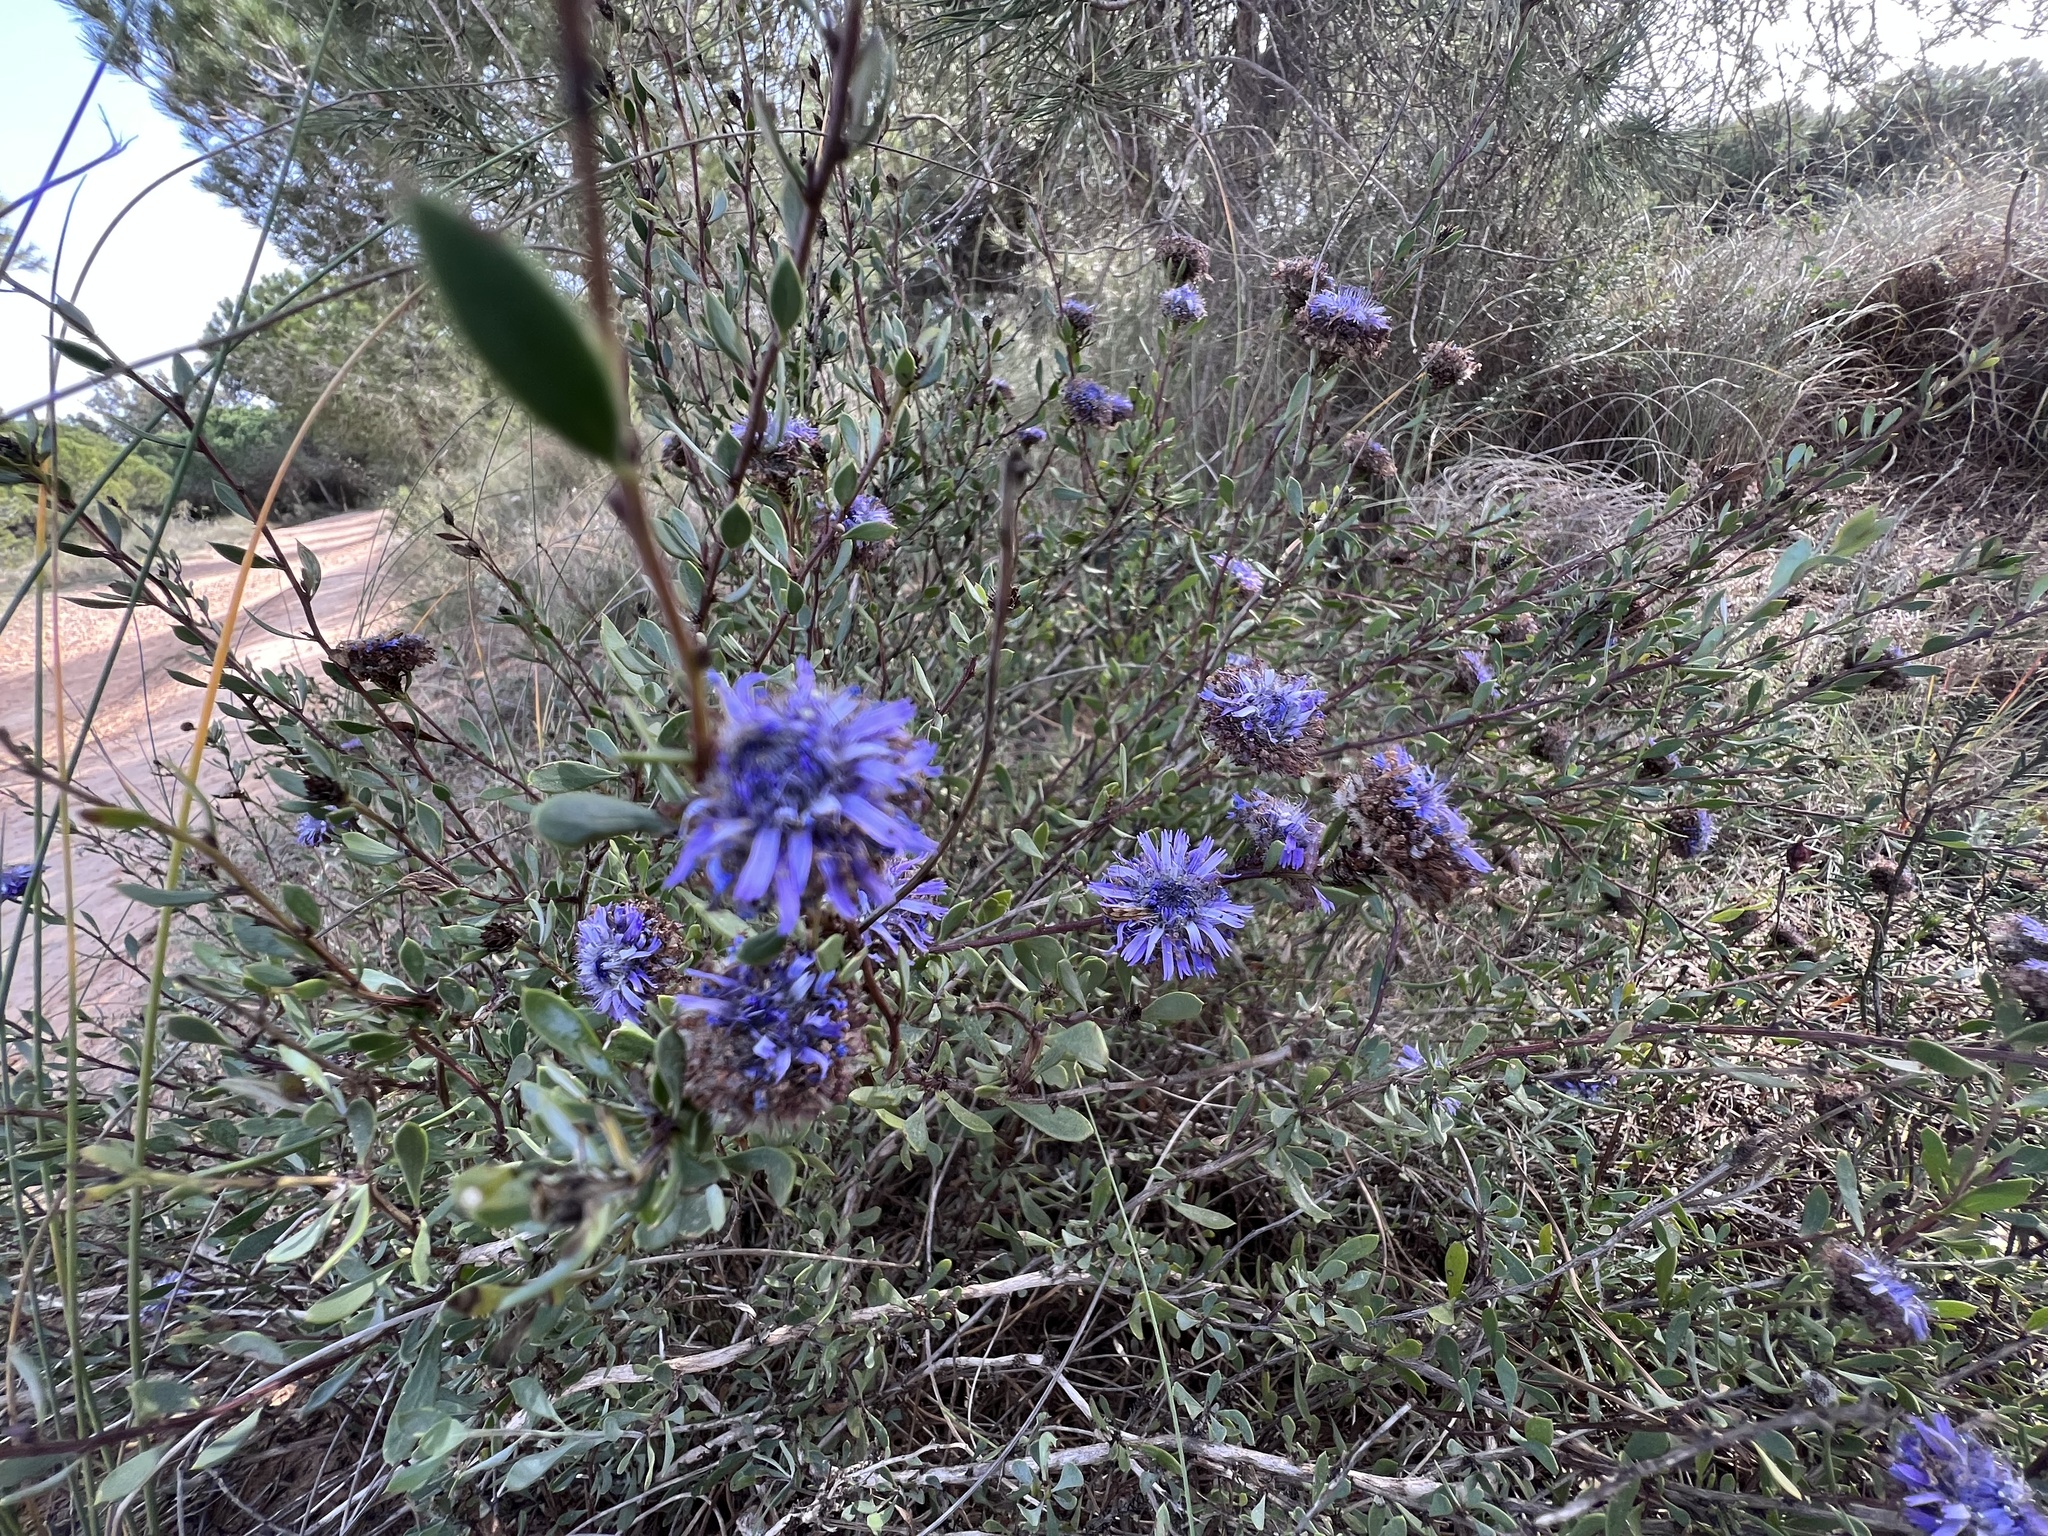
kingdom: Plantae
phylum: Tracheophyta
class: Magnoliopsida
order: Lamiales
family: Plantaginaceae
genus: Globularia
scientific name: Globularia alypum
